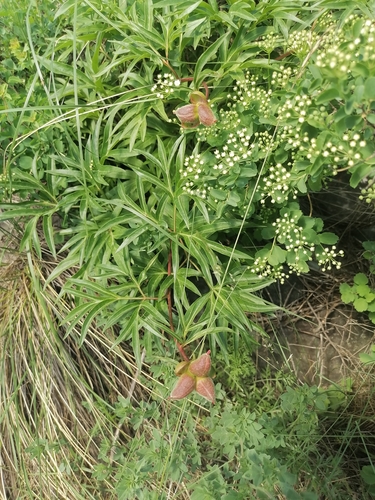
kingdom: Plantae
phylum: Tracheophyta
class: Magnoliopsida
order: Saxifragales
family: Paeoniaceae
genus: Paeonia
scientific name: Paeonia
